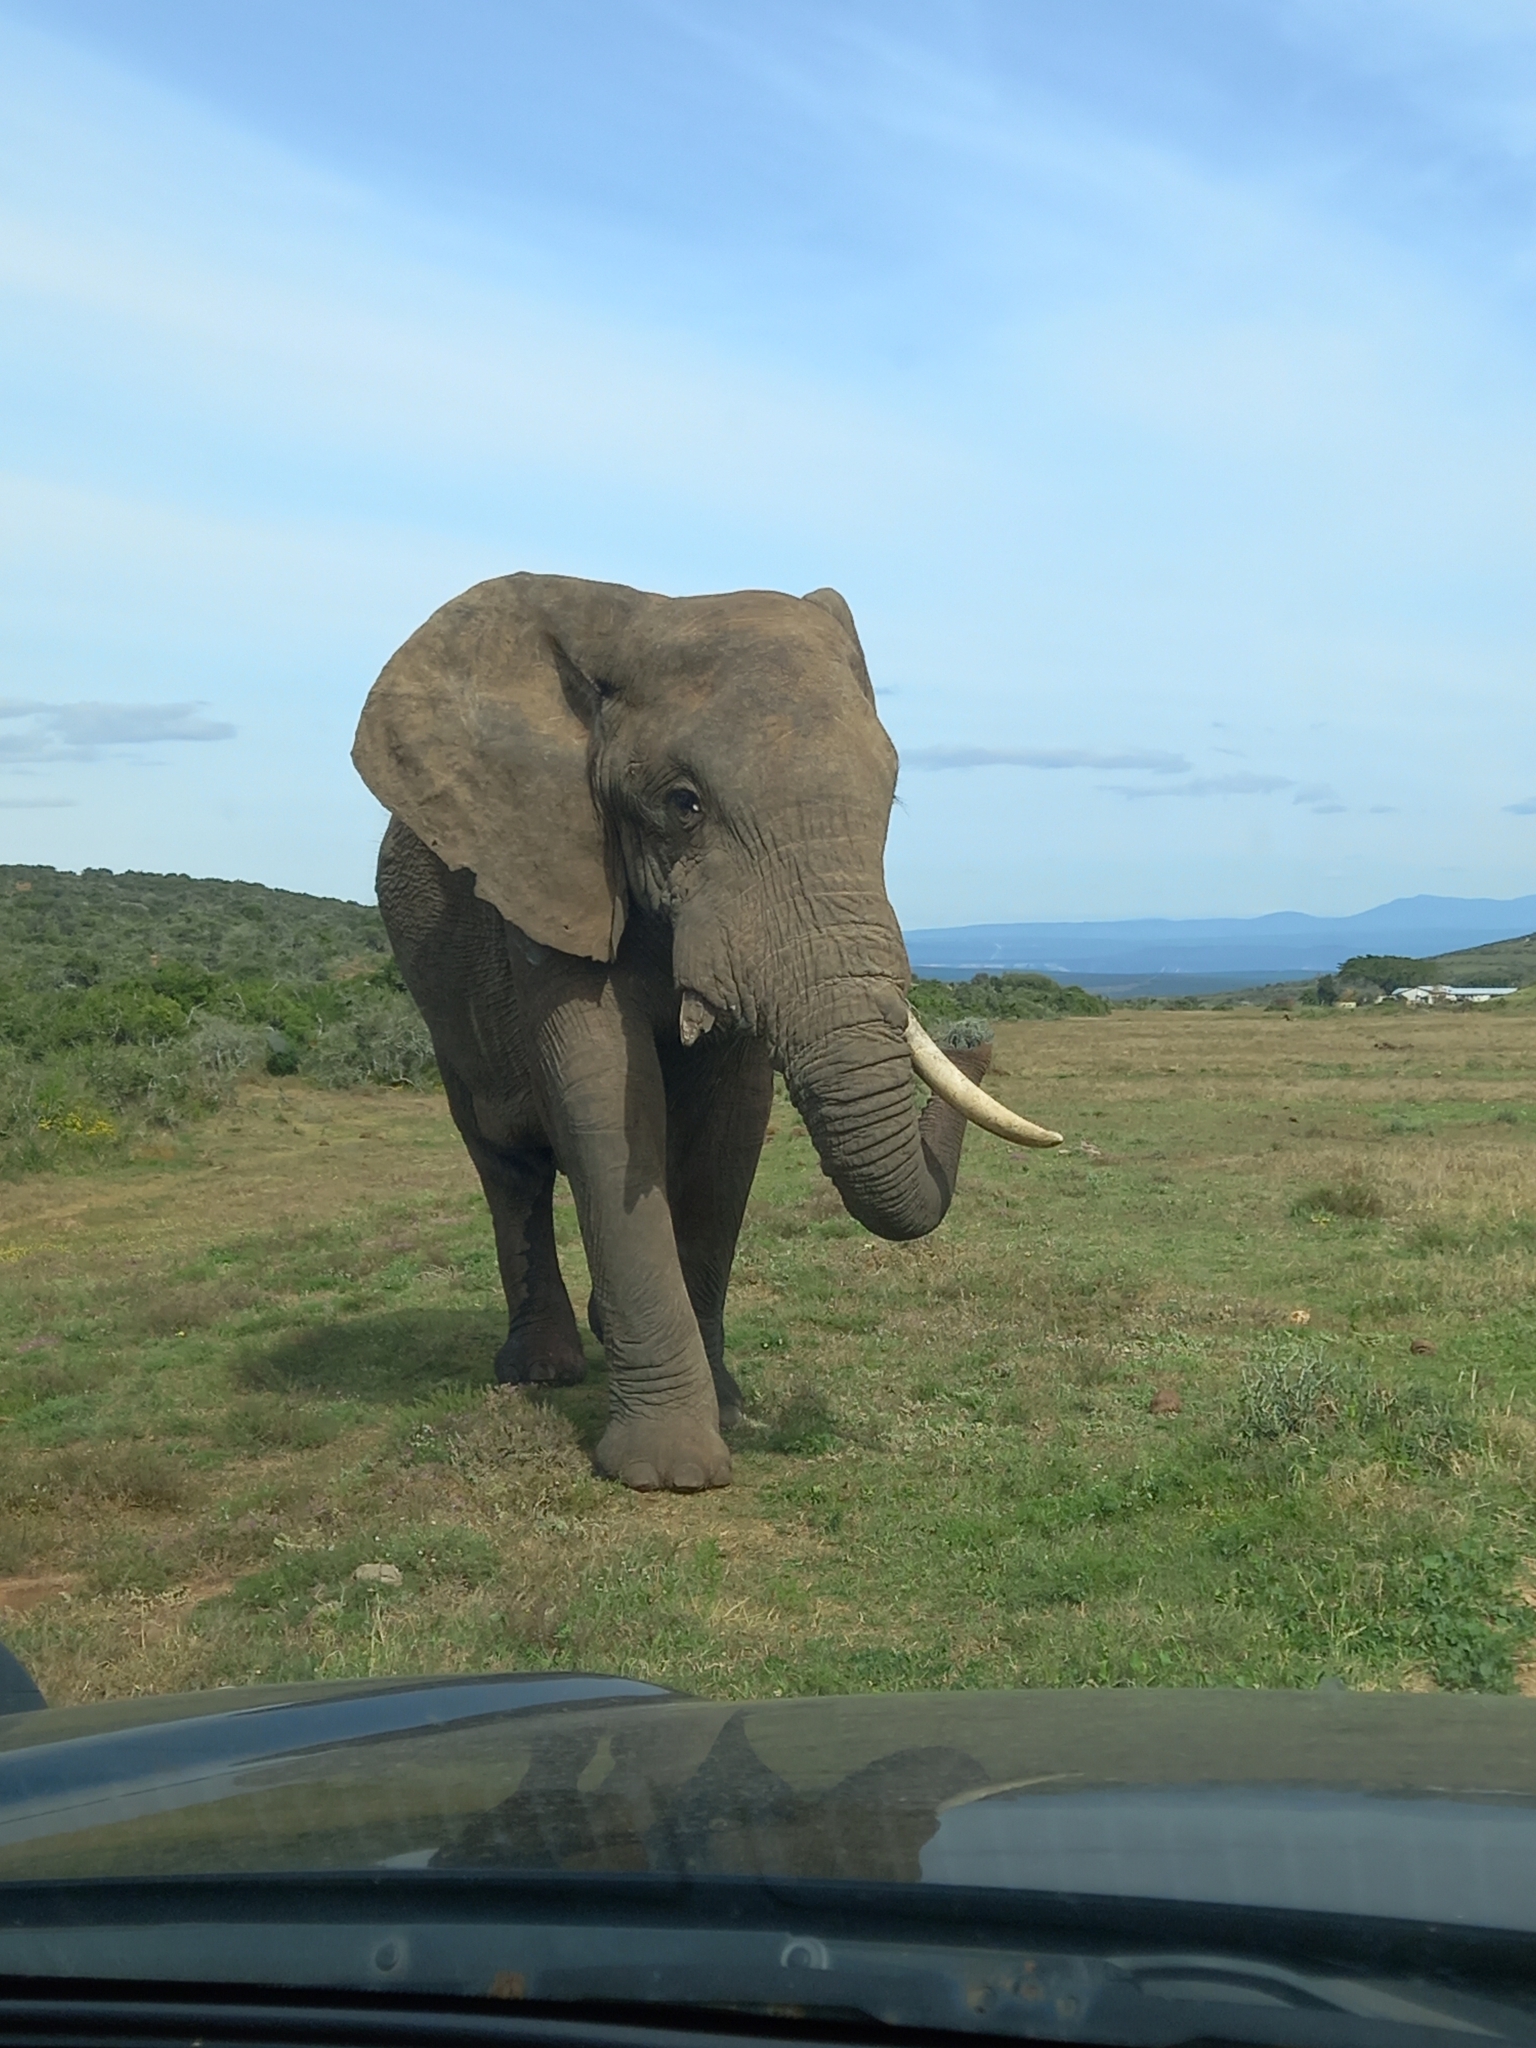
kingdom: Animalia
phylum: Chordata
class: Mammalia
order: Proboscidea
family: Elephantidae
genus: Loxodonta
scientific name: Loxodonta africana
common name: African elephant
